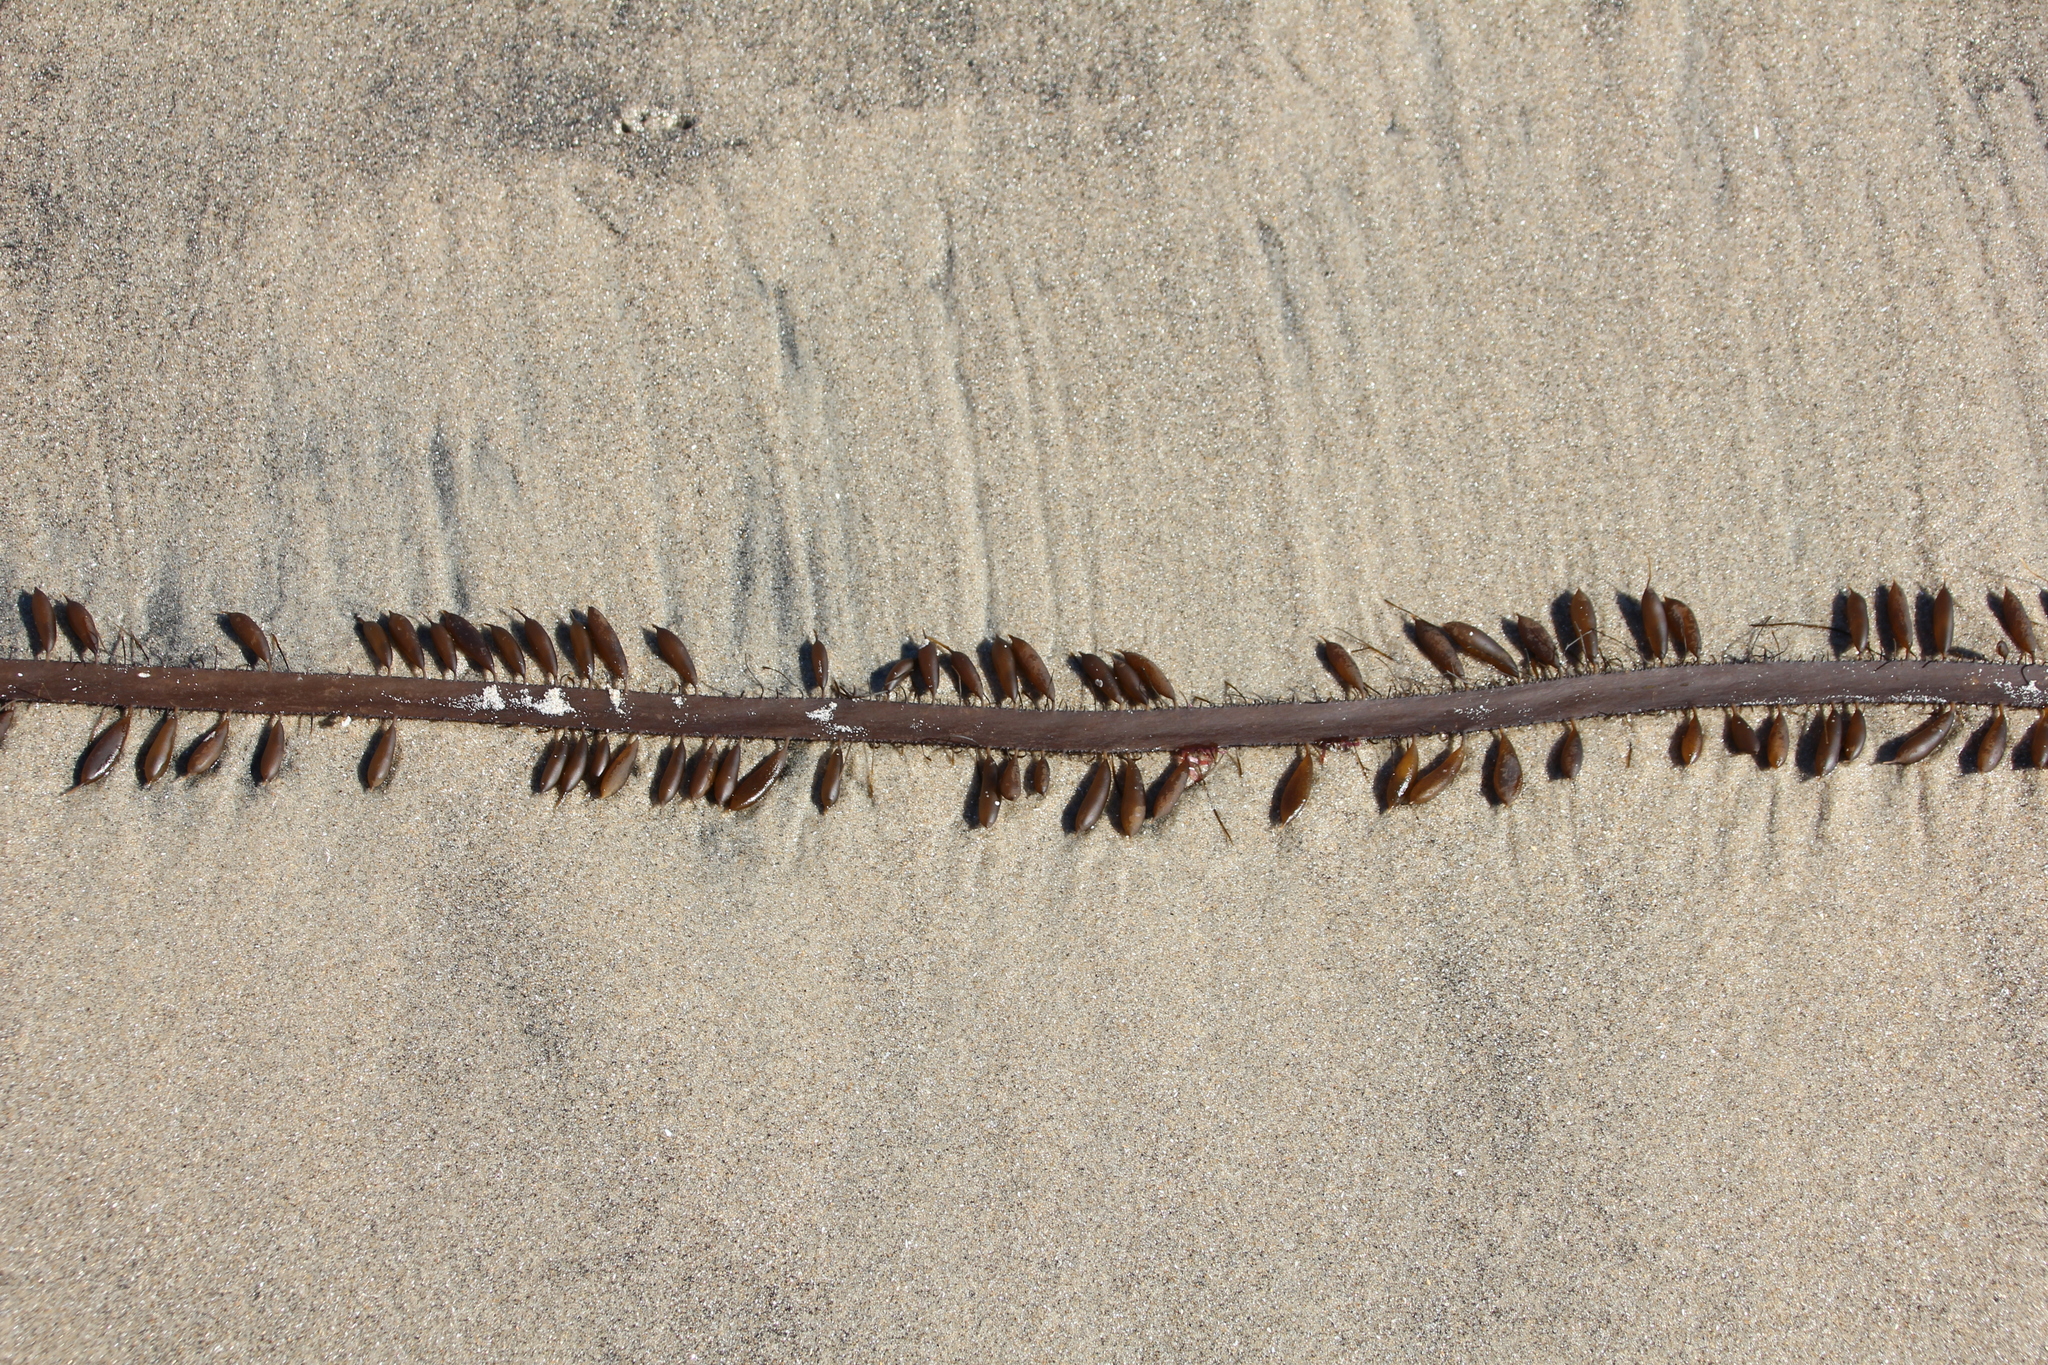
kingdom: Chromista
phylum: Ochrophyta
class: Phaeophyceae
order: Laminariales
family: Lessoniaceae
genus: Egregia
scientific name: Egregia menziesii
